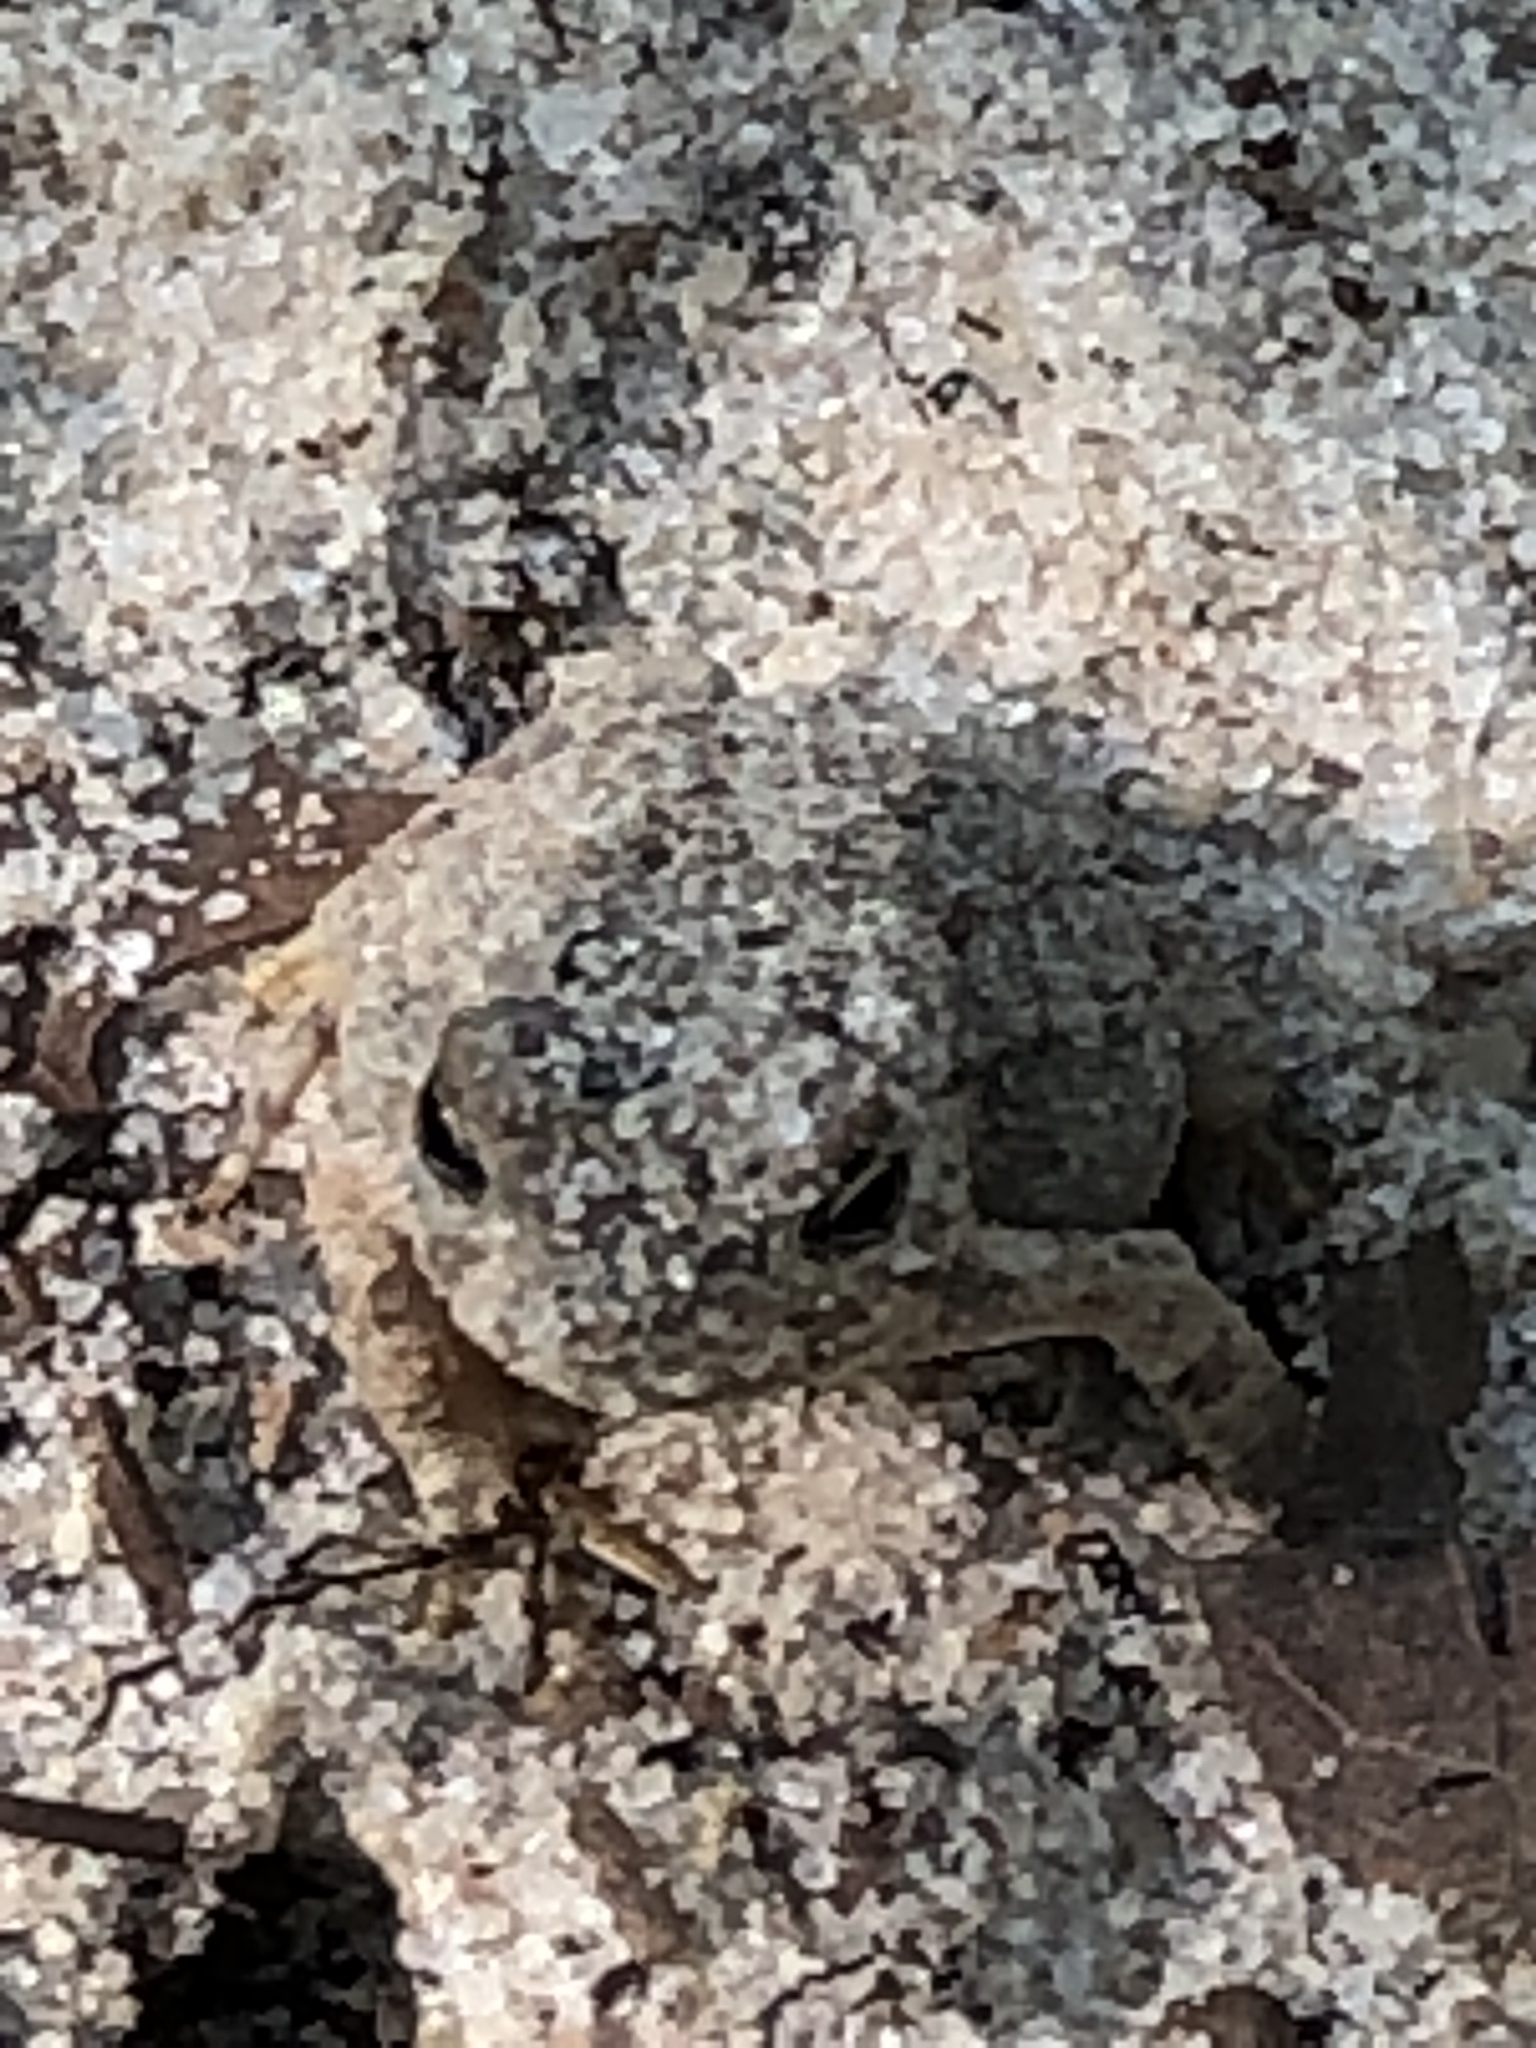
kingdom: Animalia
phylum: Chordata
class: Amphibia
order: Anura
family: Bufonidae
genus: Anaxyrus
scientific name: Anaxyrus fowleri
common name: Fowler's toad
